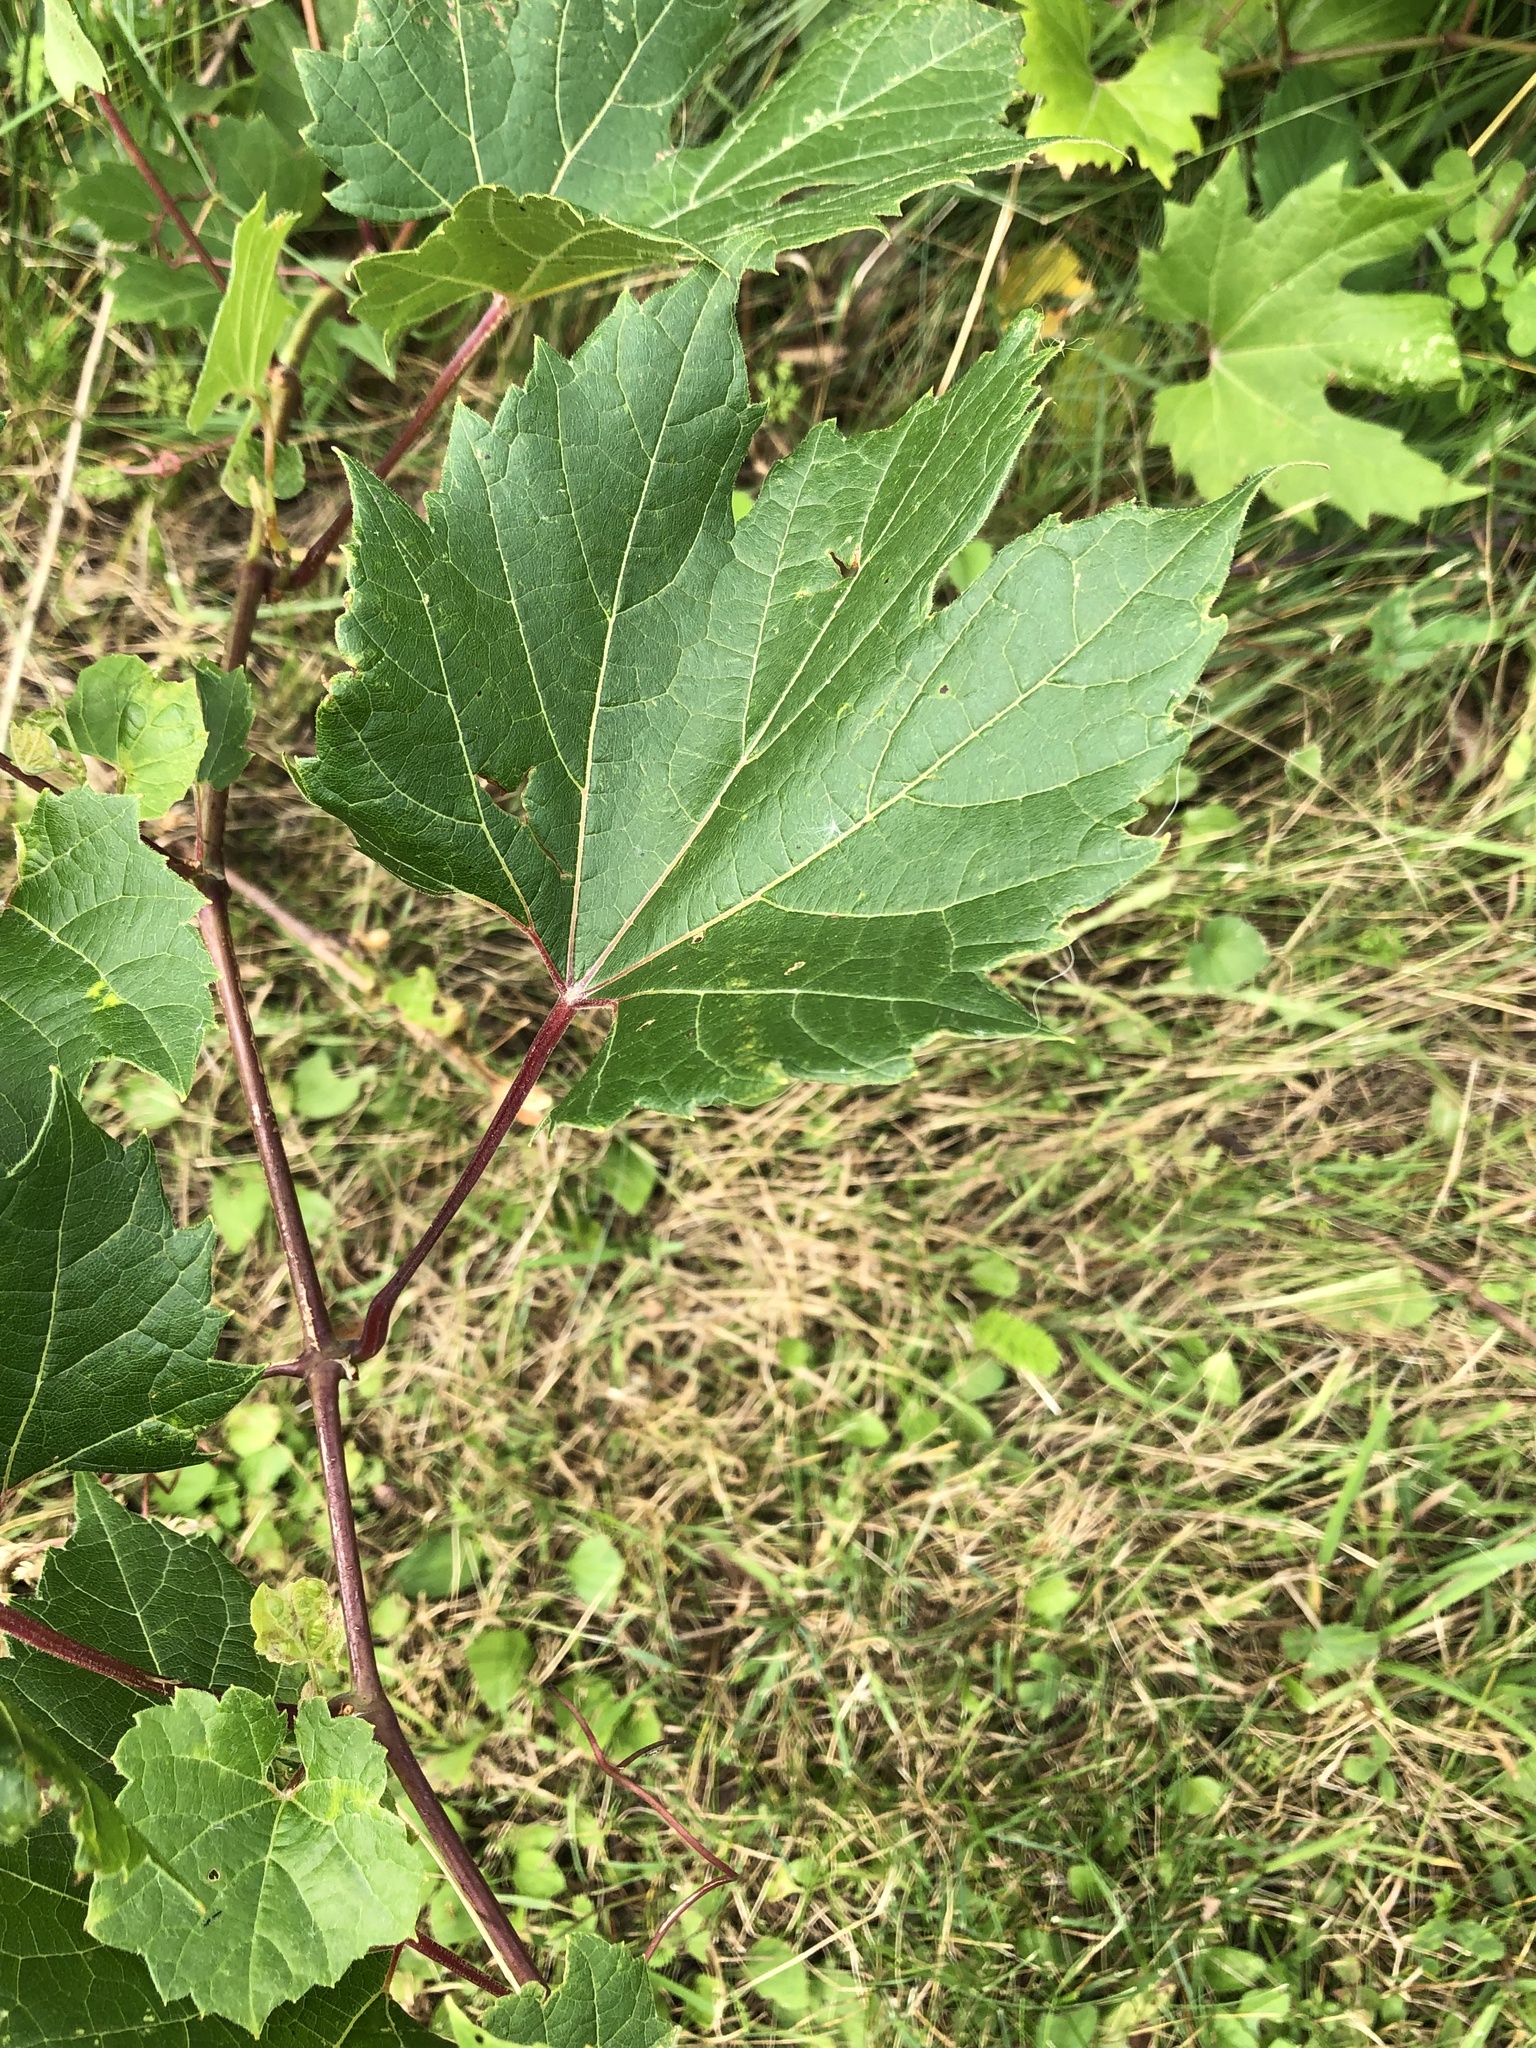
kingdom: Plantae
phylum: Tracheophyta
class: Magnoliopsida
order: Vitales
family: Vitaceae
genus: Vitis
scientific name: Vitis riparia
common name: Frost grape
